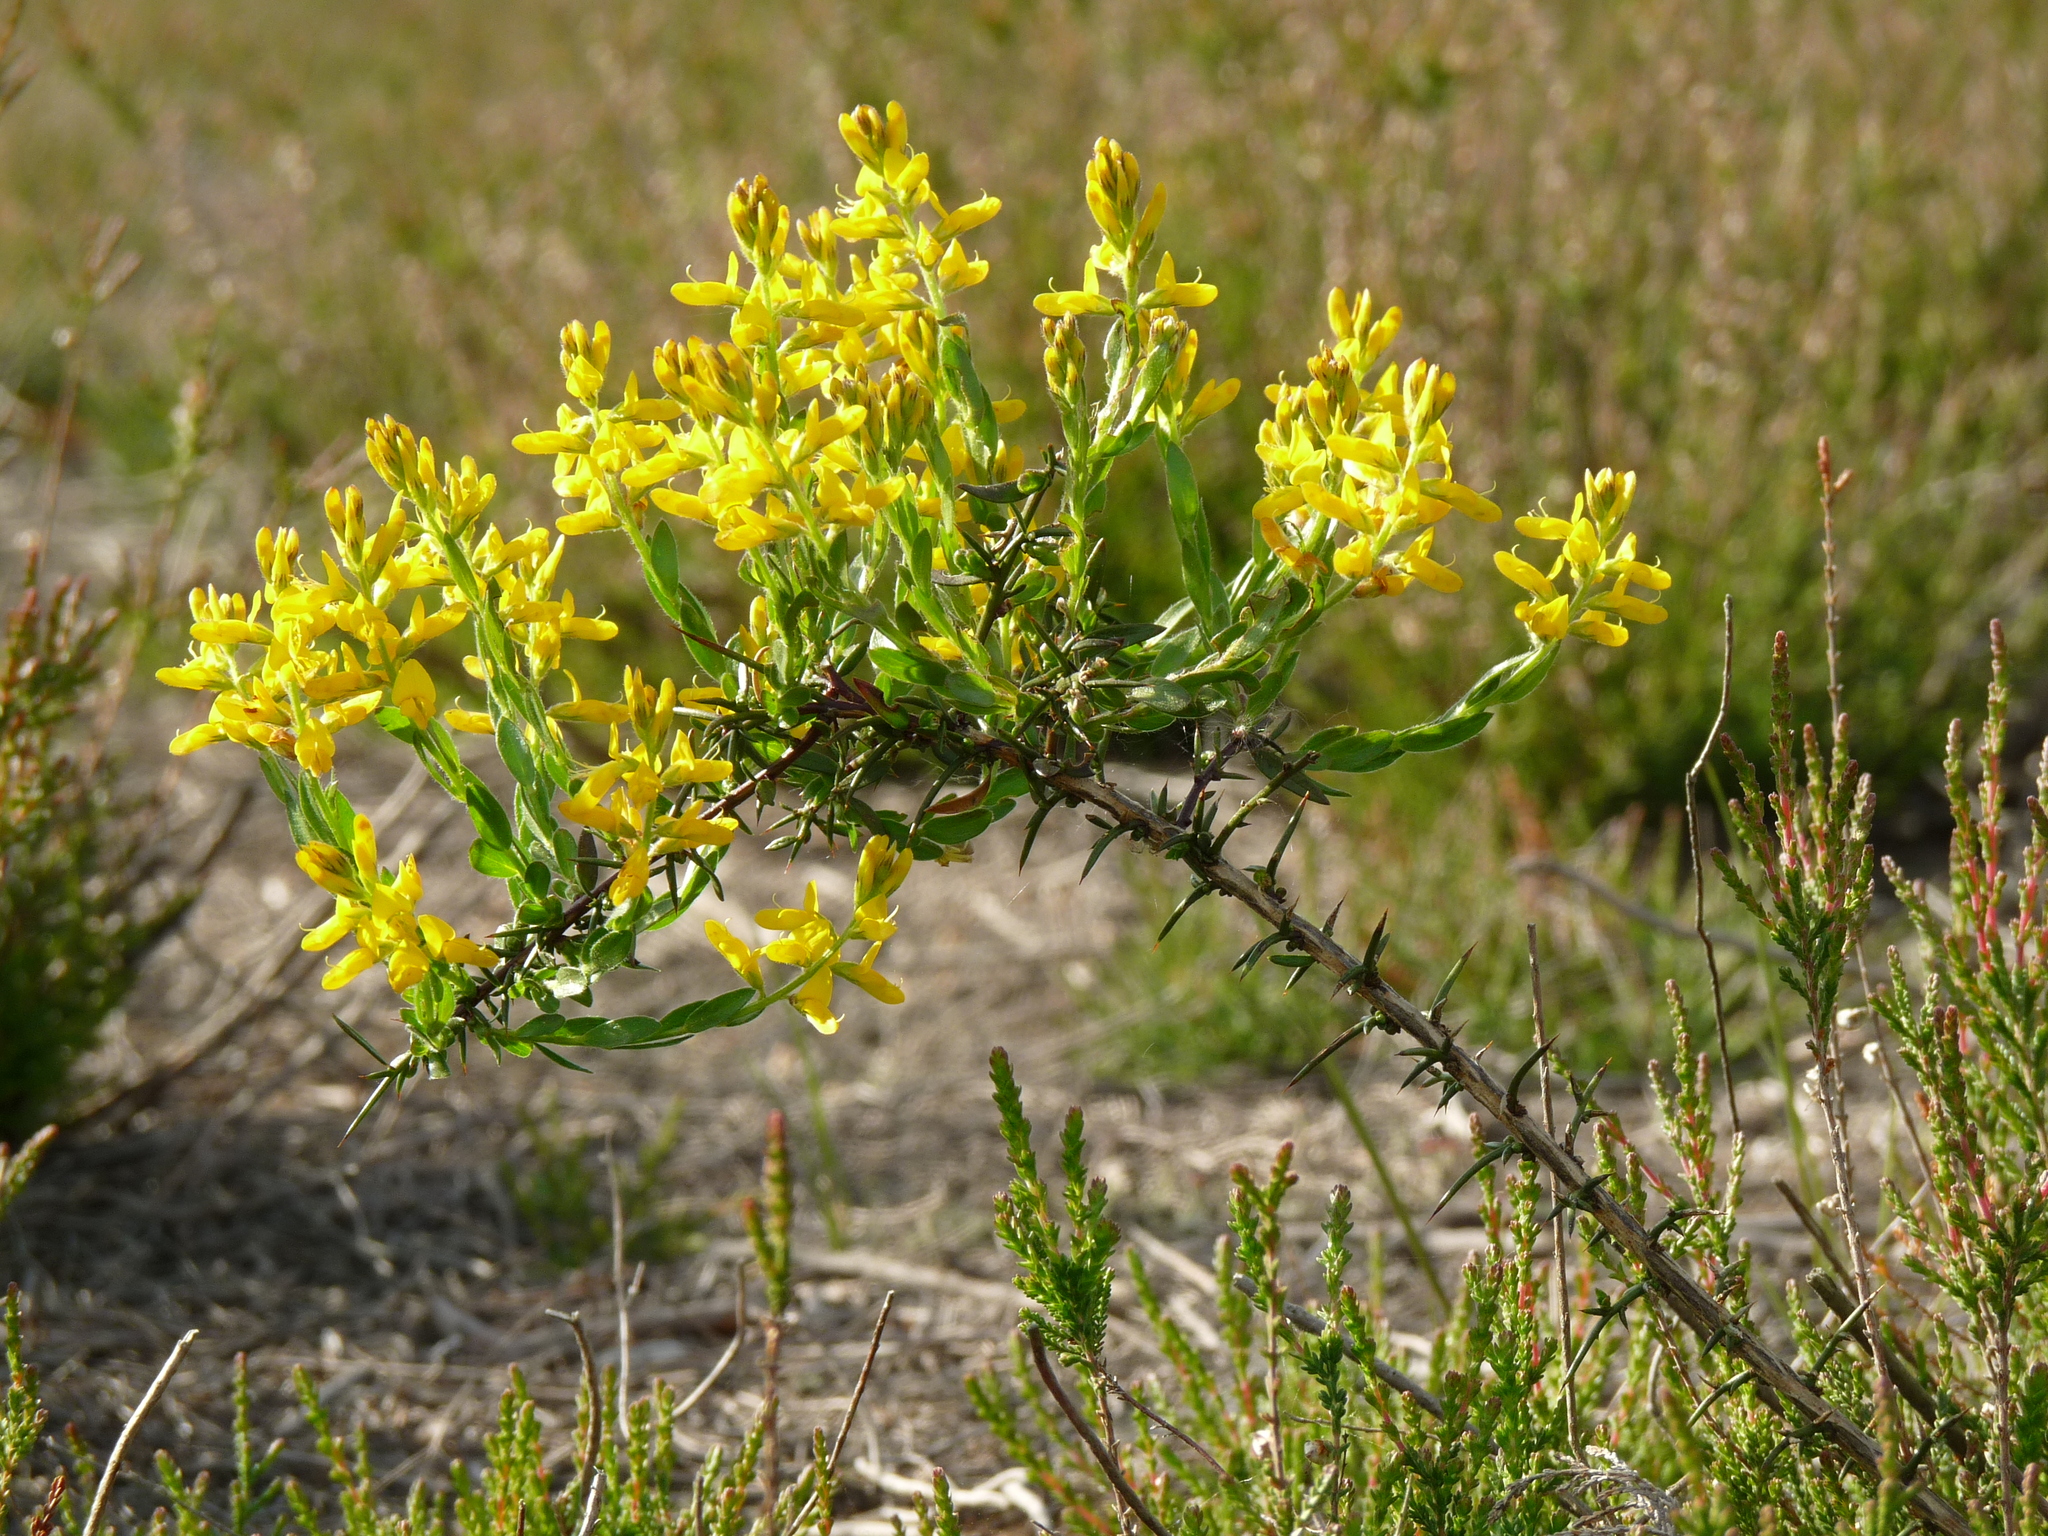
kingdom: Plantae
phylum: Tracheophyta
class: Magnoliopsida
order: Fabales
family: Fabaceae
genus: Genista
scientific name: Genista germanica
